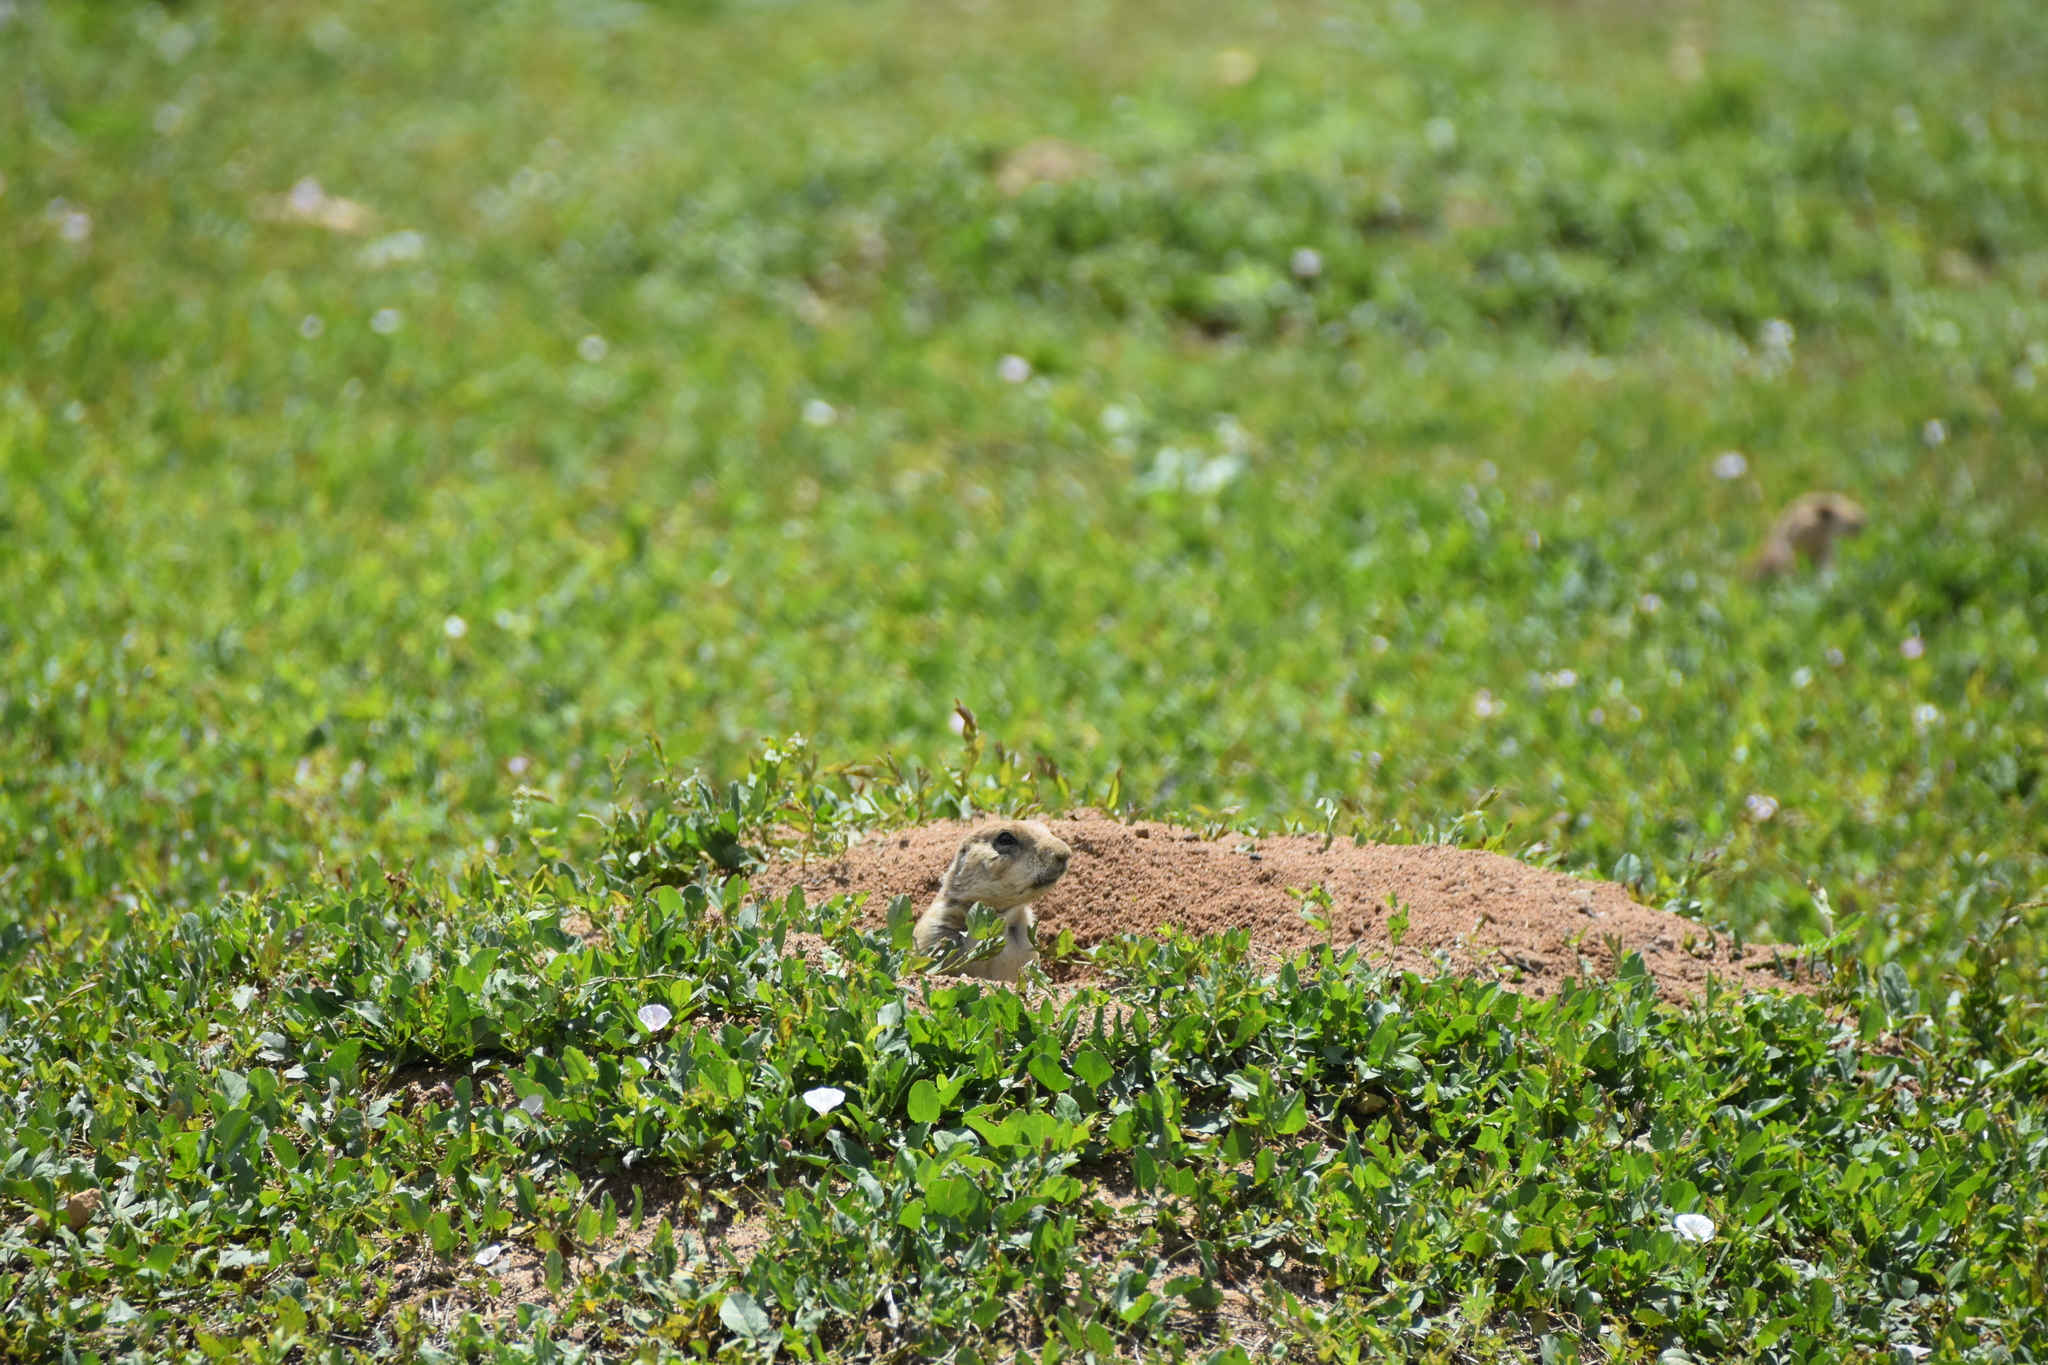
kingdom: Animalia
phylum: Chordata
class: Mammalia
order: Rodentia
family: Sciuridae
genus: Cynomys
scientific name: Cynomys ludovicianus
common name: Black-tailed prairie dog
